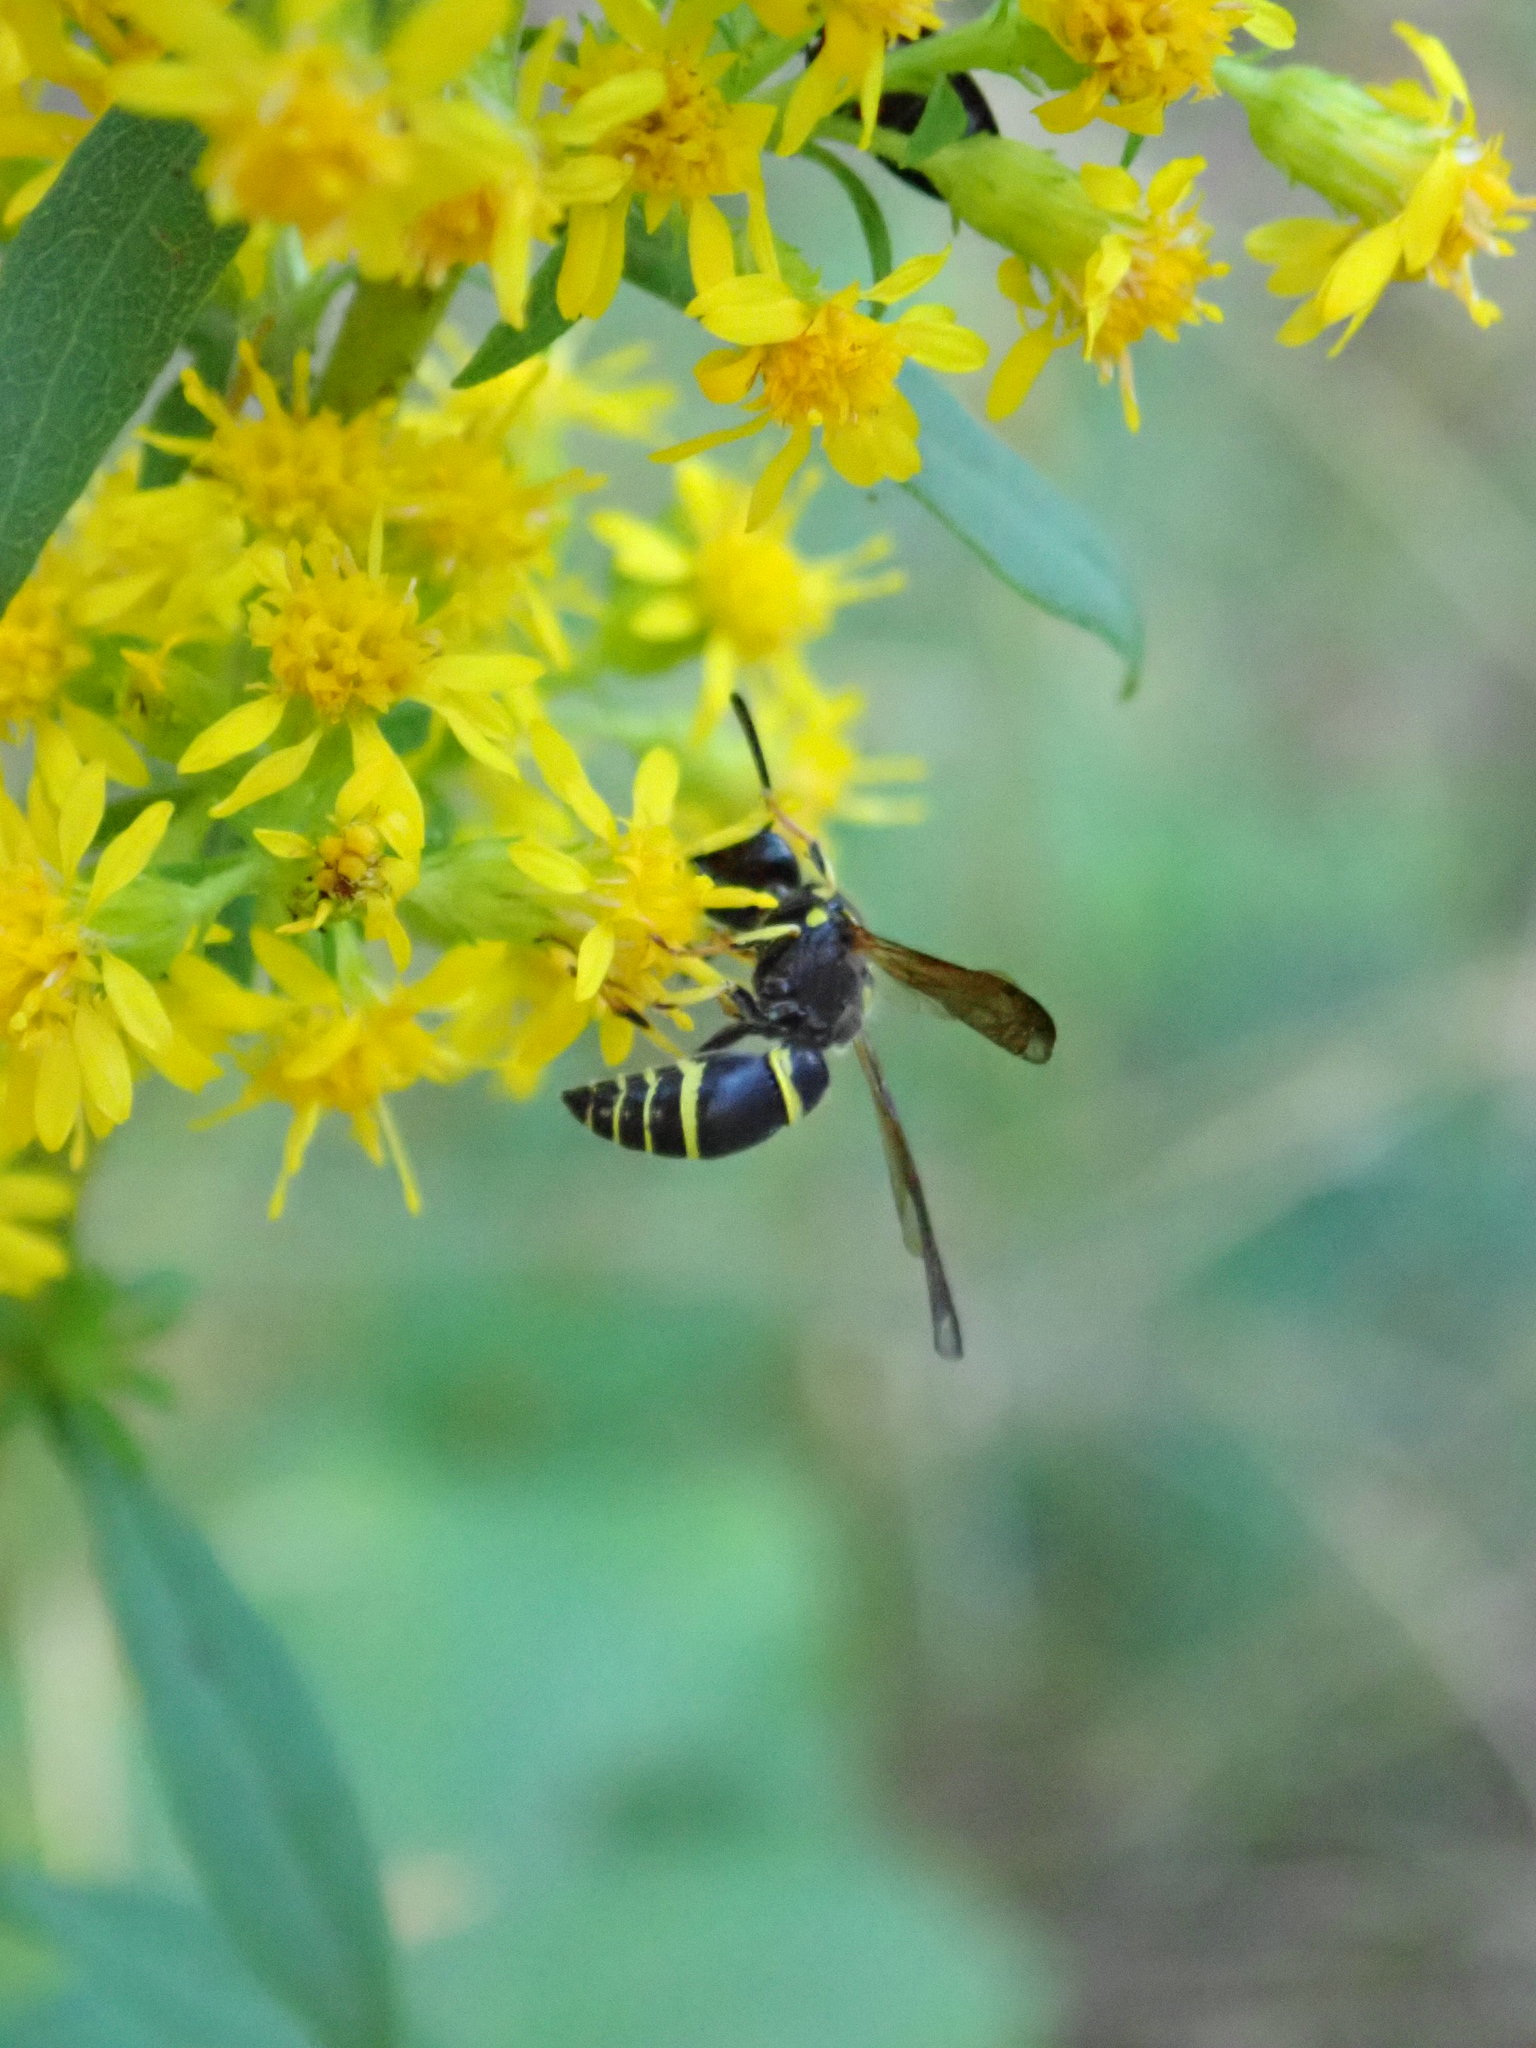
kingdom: Animalia
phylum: Arthropoda
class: Insecta
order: Hymenoptera
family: Vespidae
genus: Ancistrocerus
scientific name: Ancistrocerus adiabatus
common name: Bramble mason wasp
